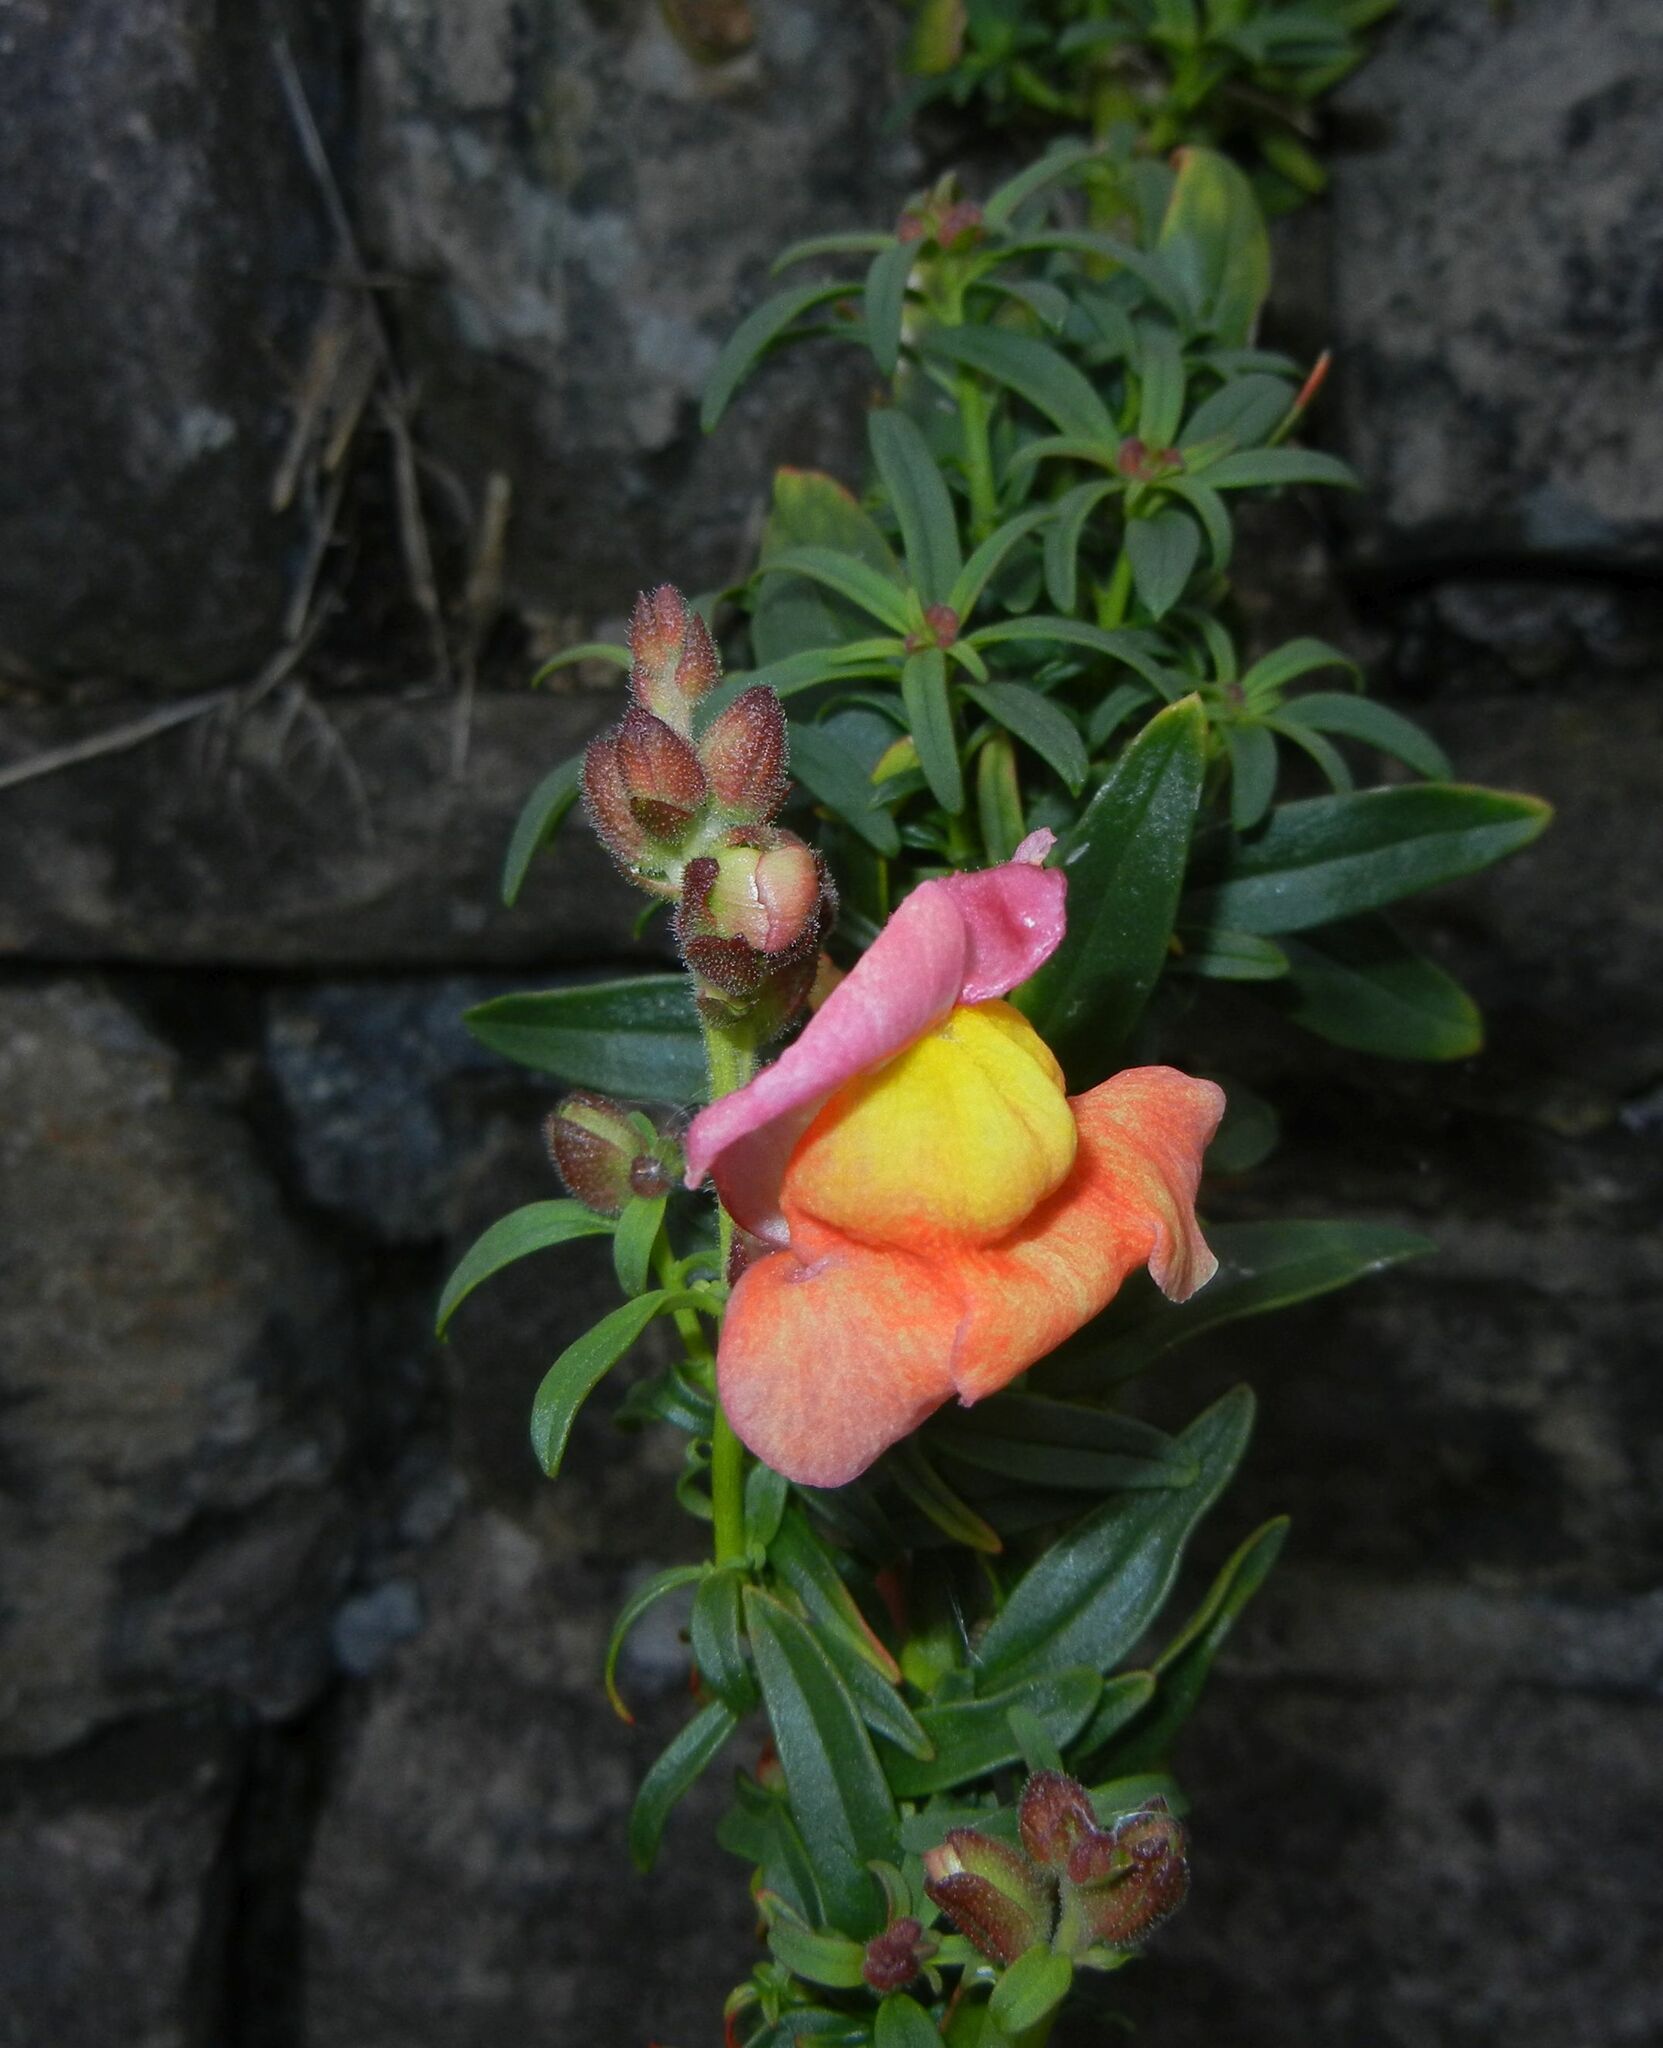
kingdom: Plantae
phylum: Tracheophyta
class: Magnoliopsida
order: Lamiales
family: Plantaginaceae
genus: Antirrhinum
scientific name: Antirrhinum majus
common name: Snapdragon
